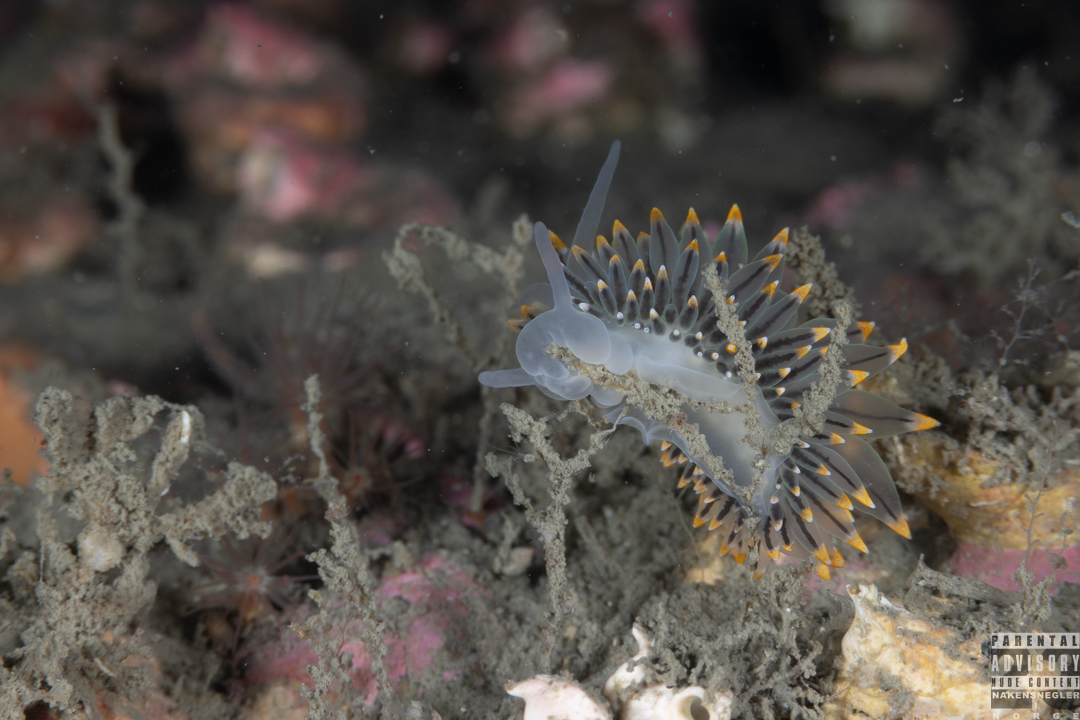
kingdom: Animalia
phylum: Mollusca
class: Gastropoda
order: Nudibranchia
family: Eubranchidae
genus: Eubranchus
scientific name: Eubranchus tricolor
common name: Painted balloon aeolis
